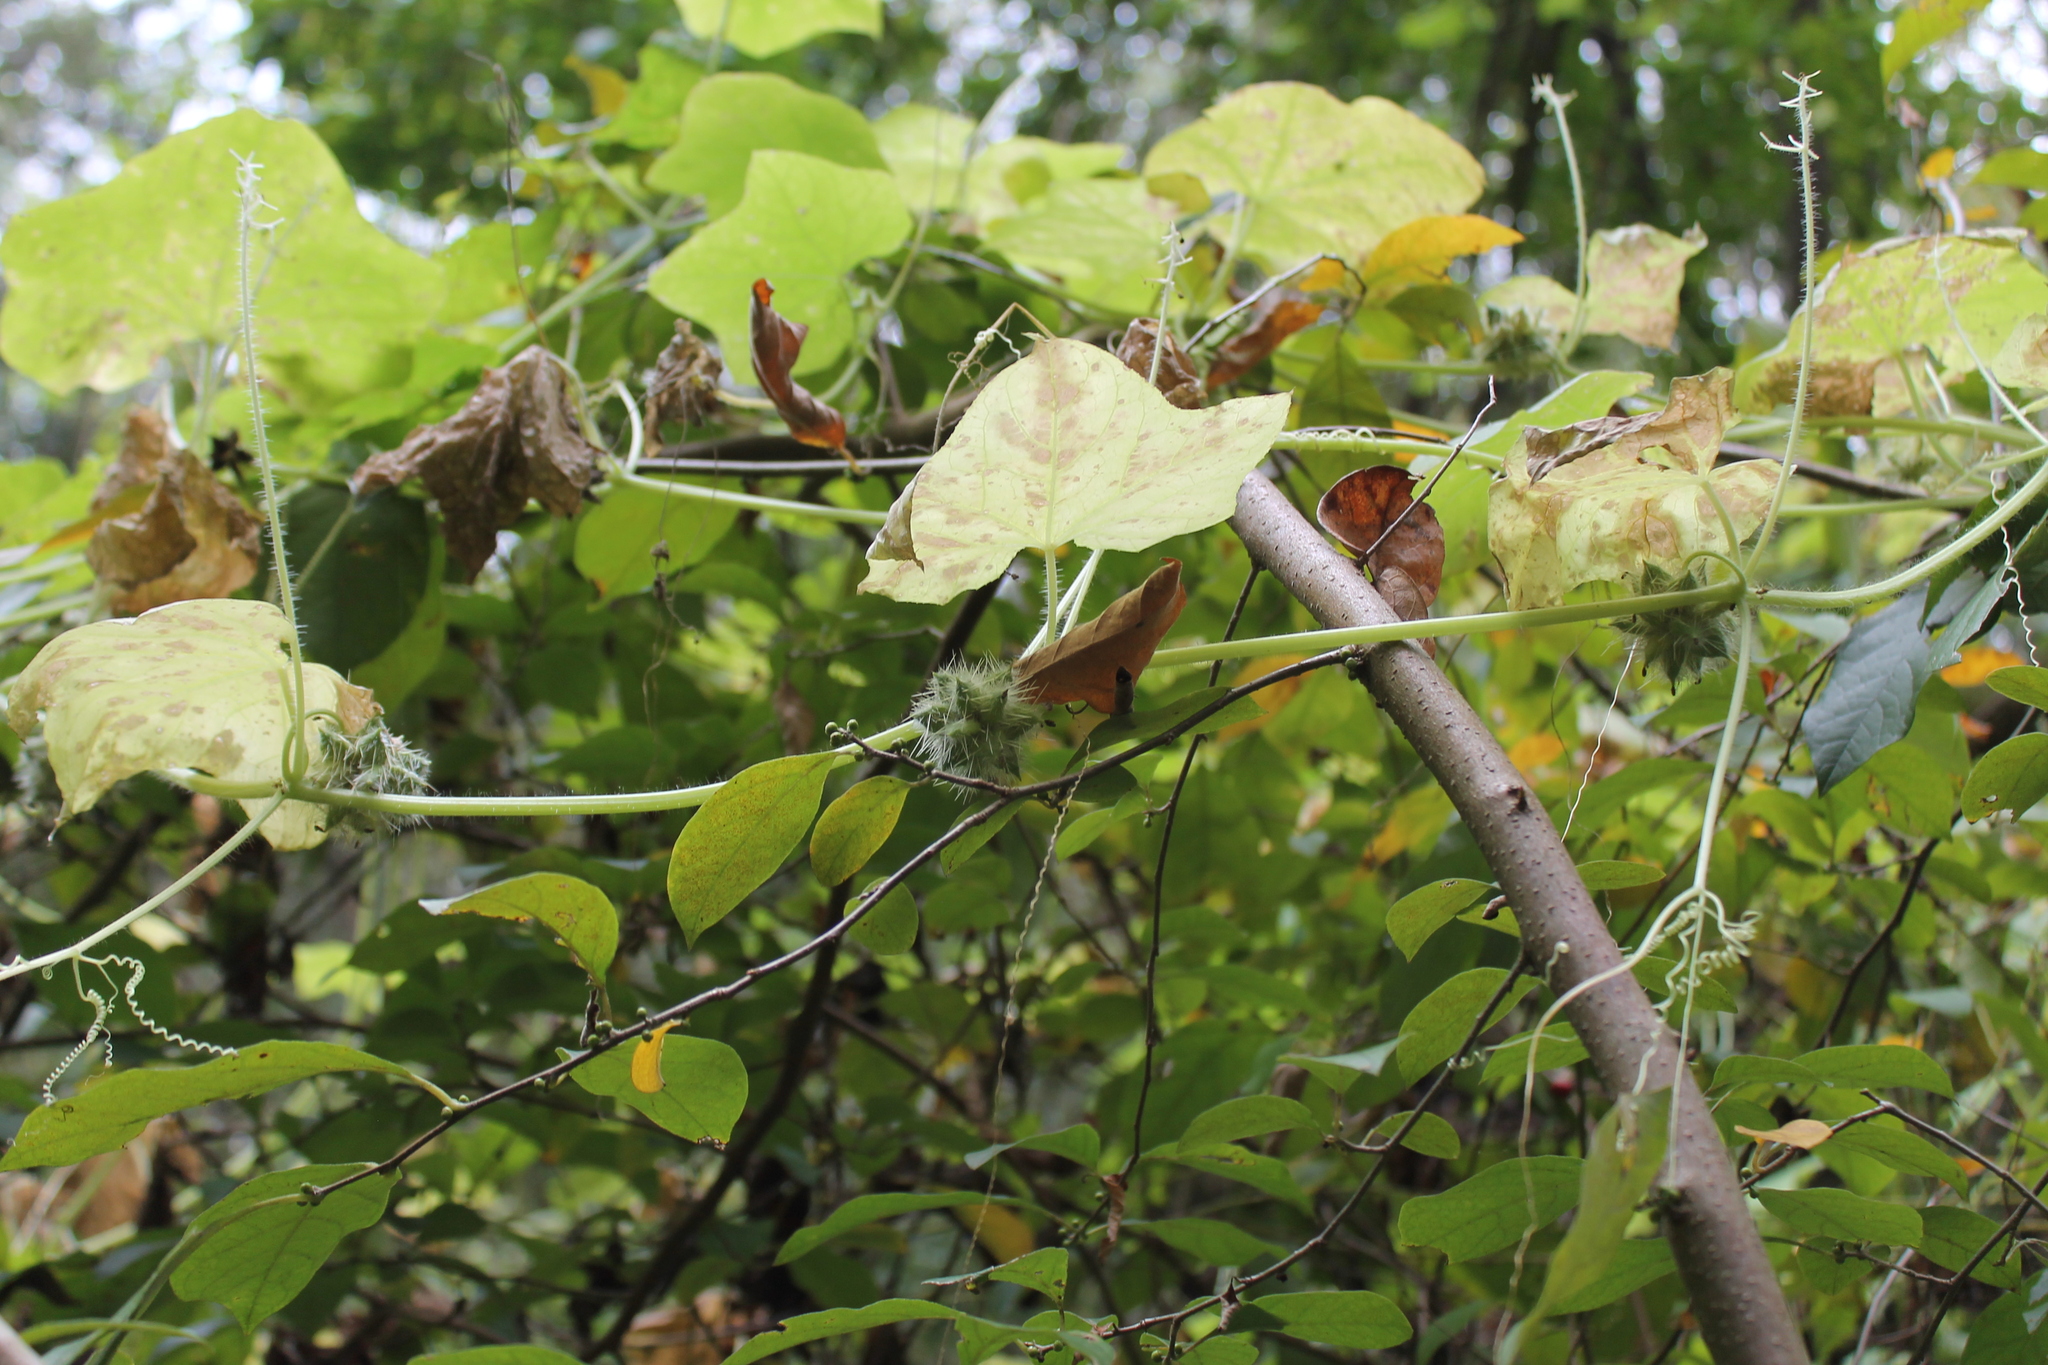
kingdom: Plantae
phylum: Tracheophyta
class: Magnoliopsida
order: Cucurbitales
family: Cucurbitaceae
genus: Sicyos
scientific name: Sicyos angulatus
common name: Angled burr cucumber
